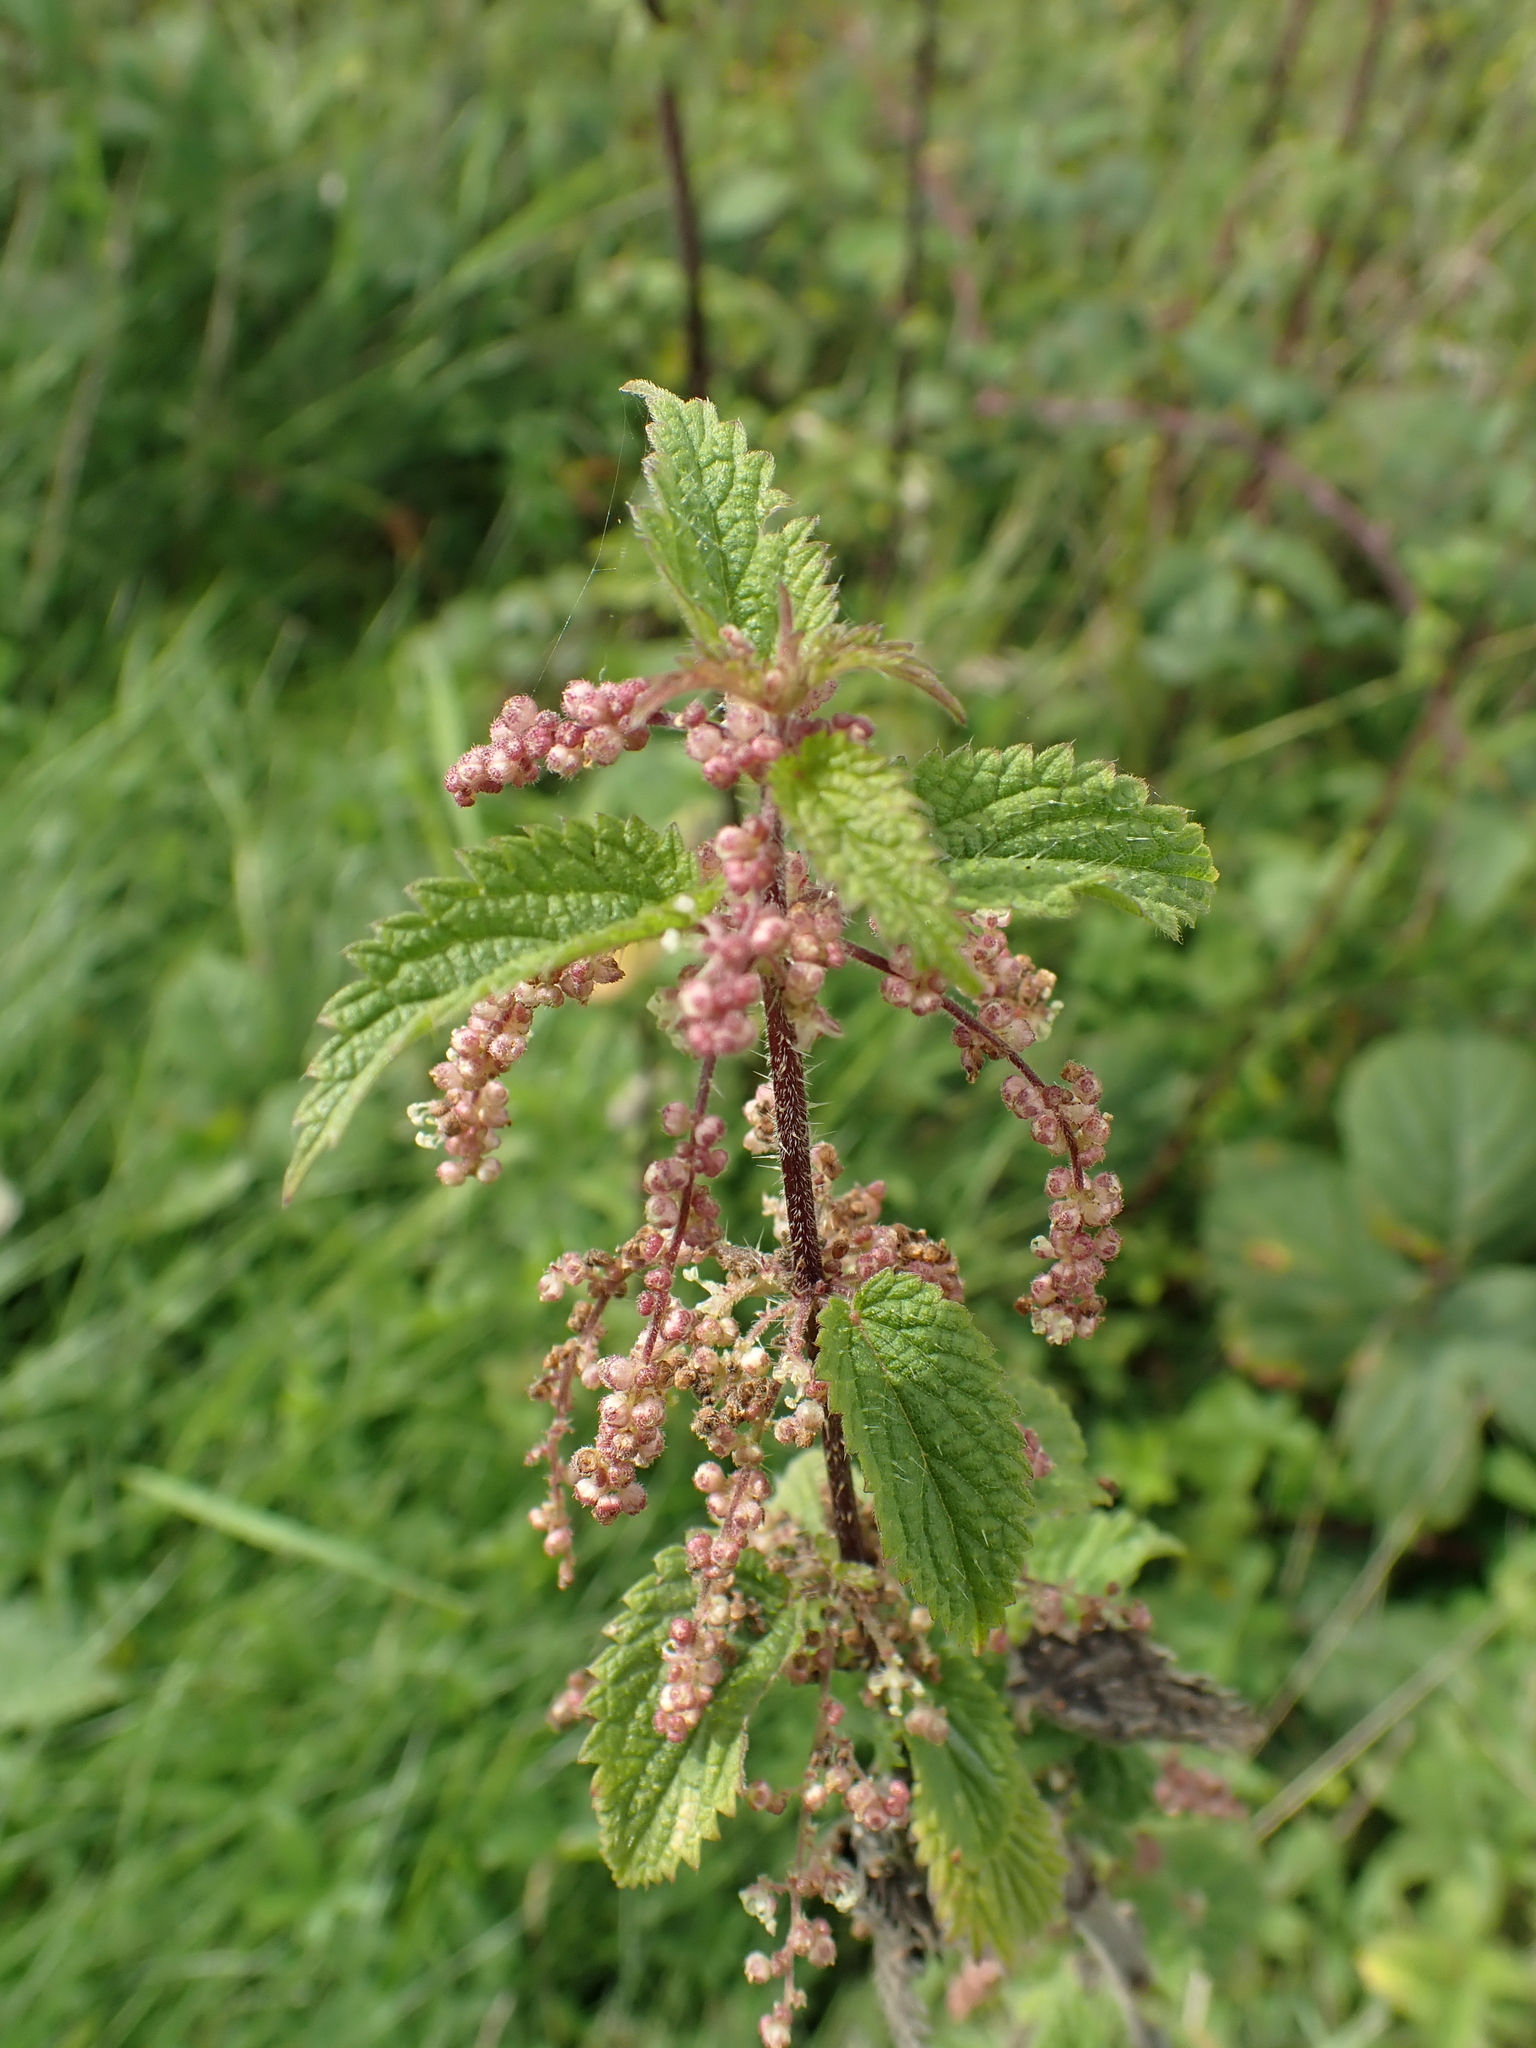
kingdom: Plantae
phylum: Tracheophyta
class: Magnoliopsida
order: Rosales
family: Urticaceae
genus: Urtica
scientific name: Urtica dioica
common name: Common nettle
